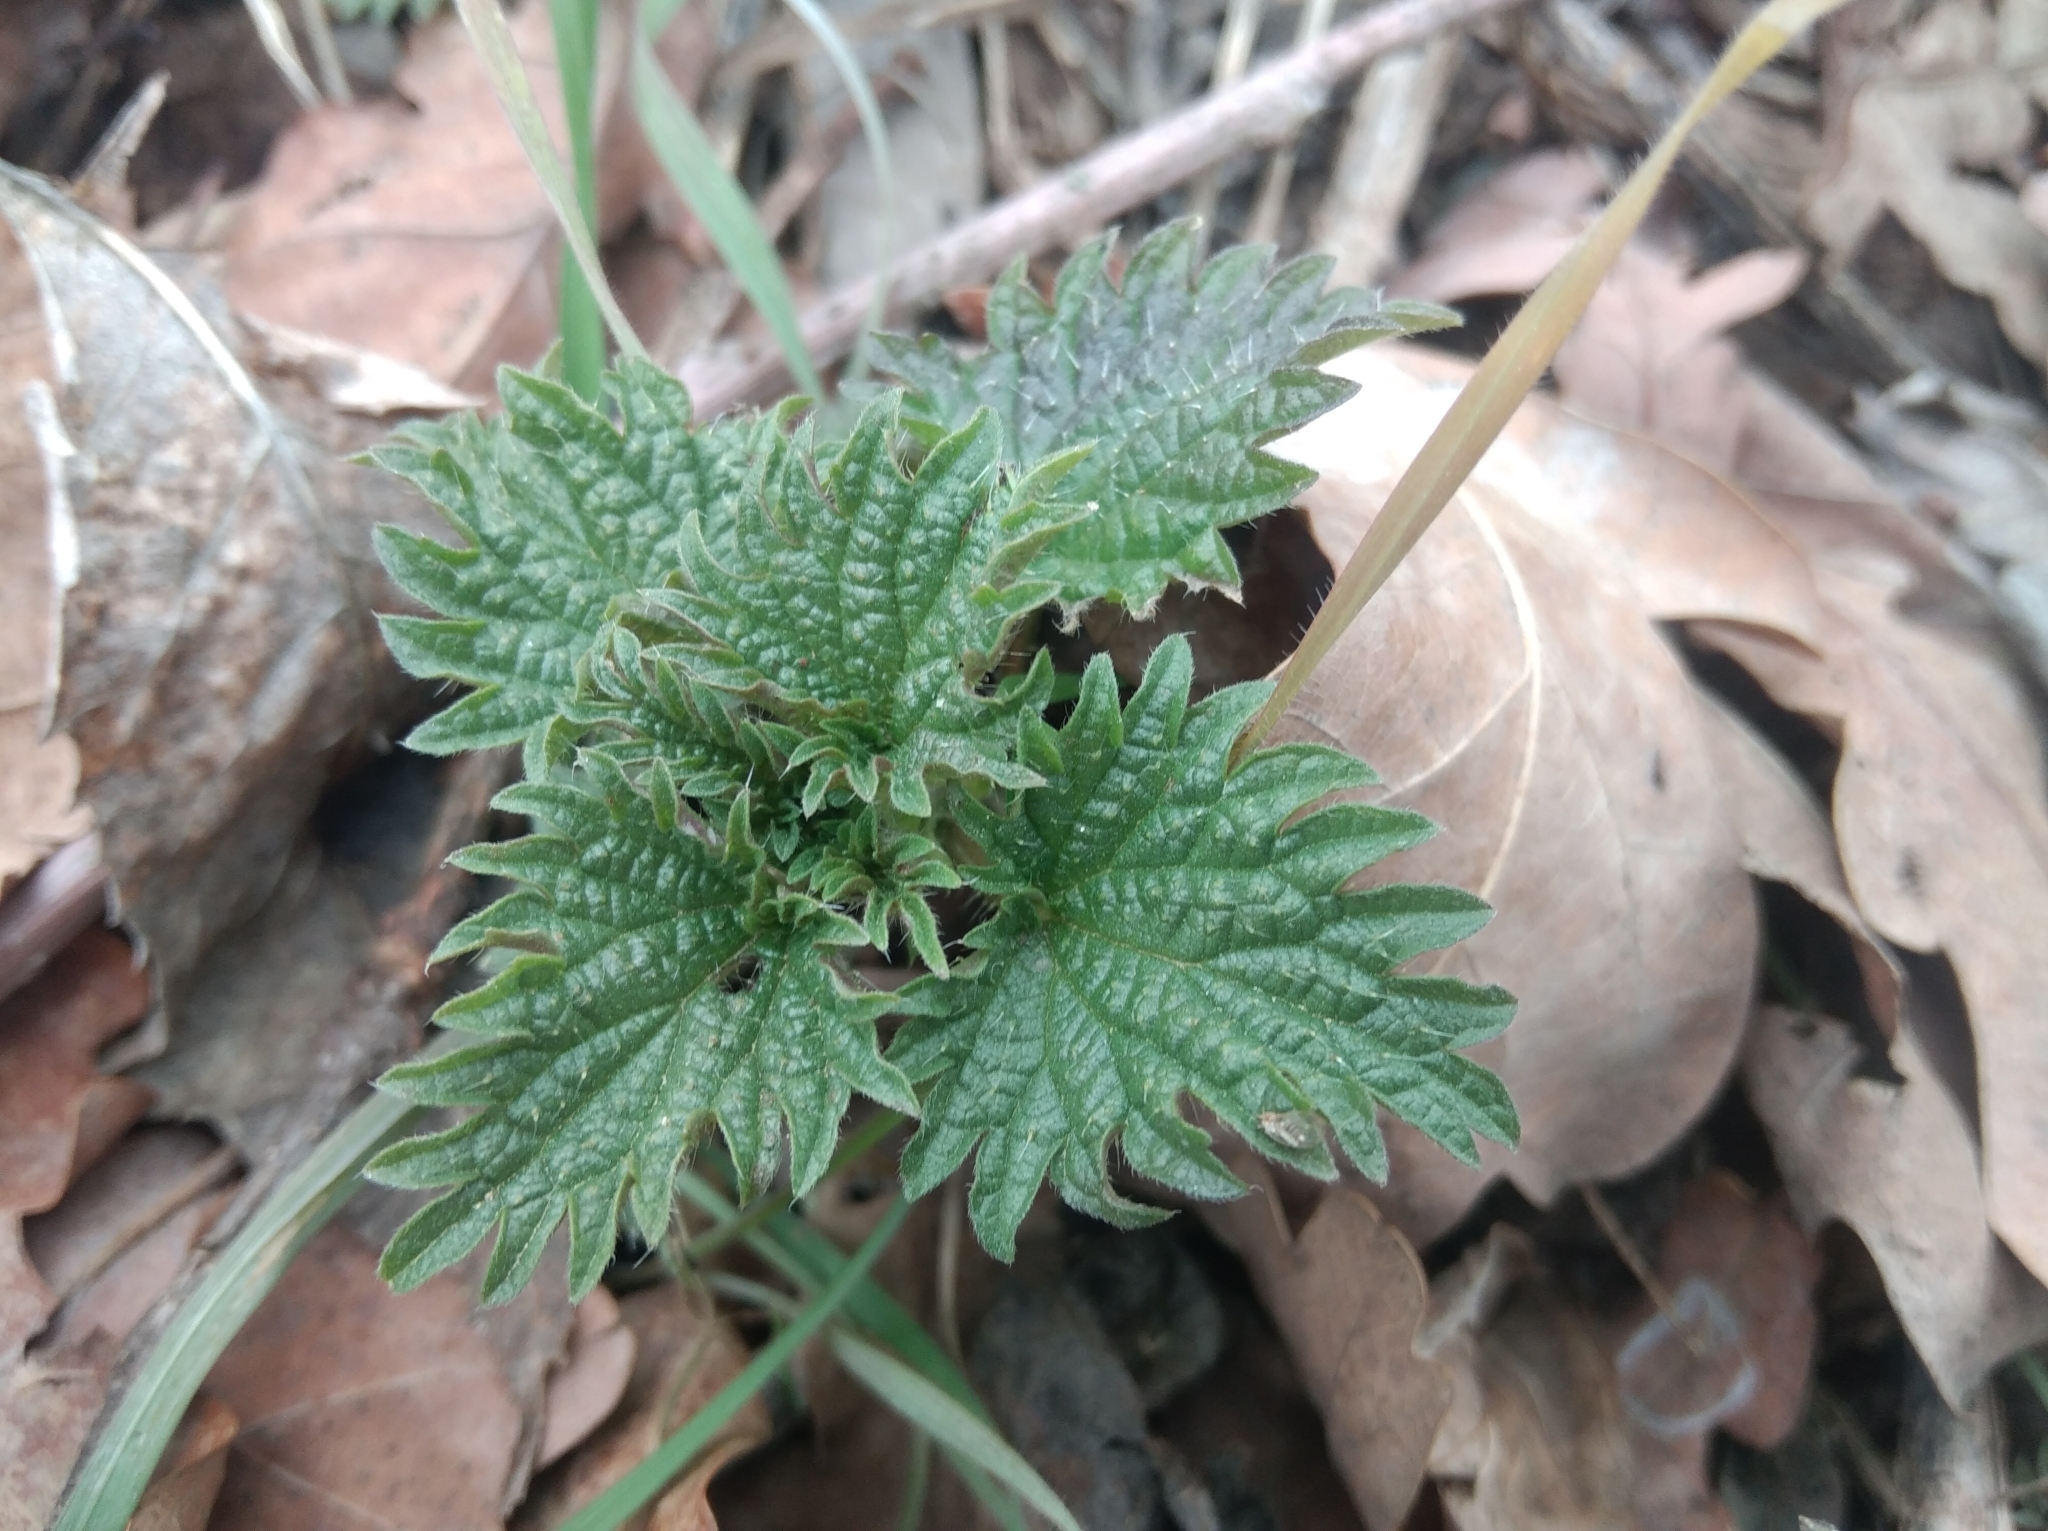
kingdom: Plantae
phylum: Tracheophyta
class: Magnoliopsida
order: Rosales
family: Urticaceae
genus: Urtica
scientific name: Urtica dioica
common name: Common nettle
